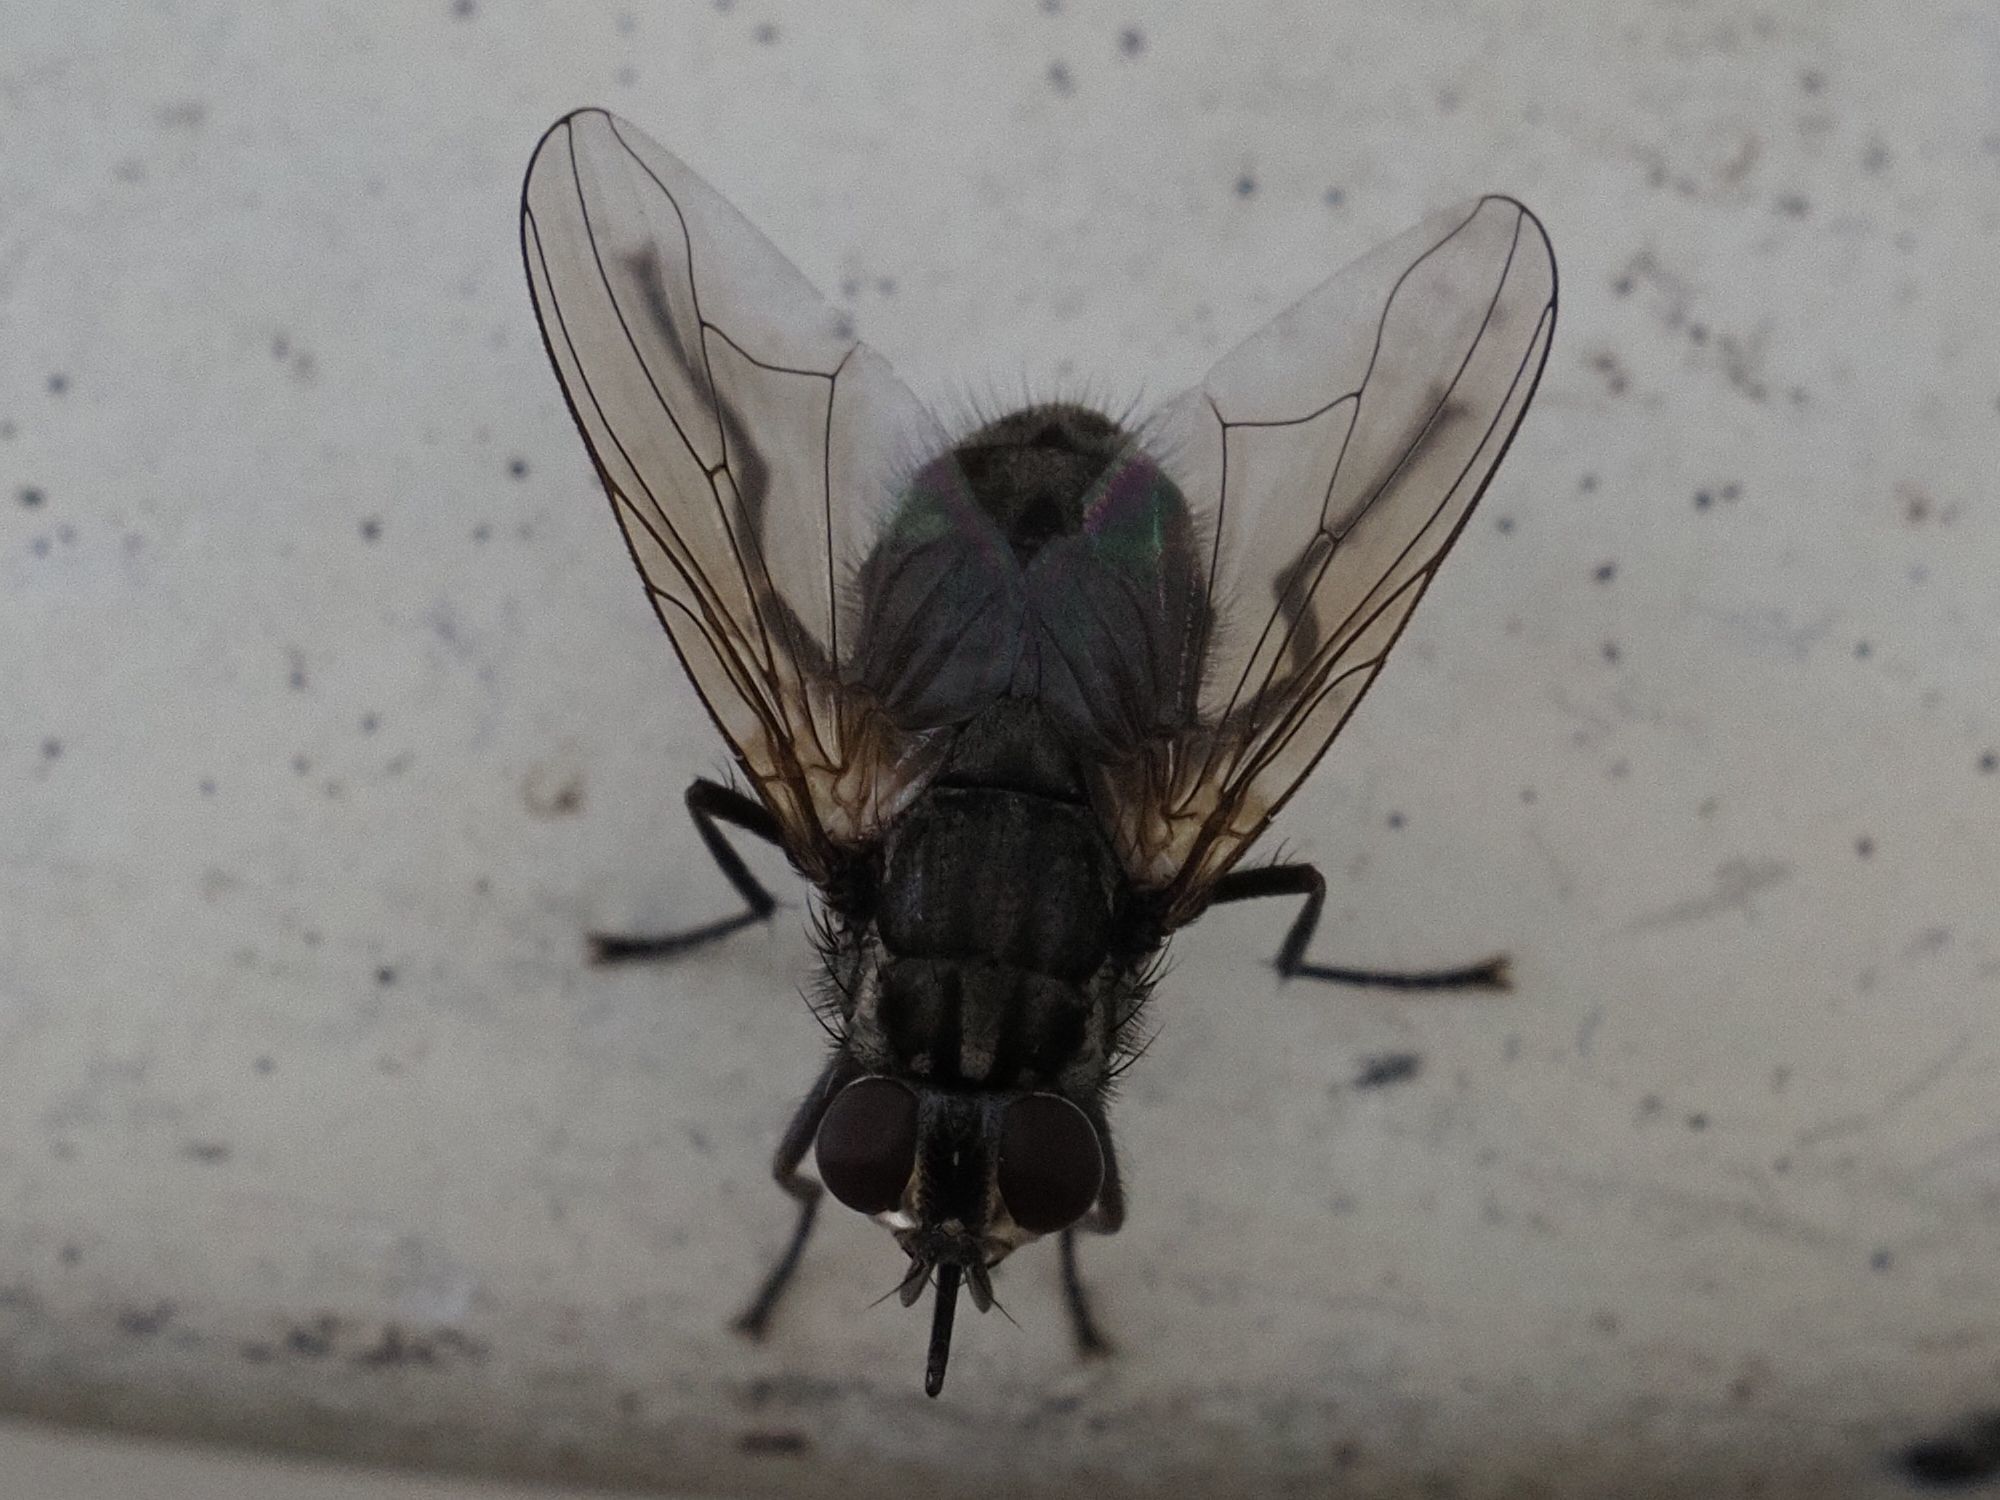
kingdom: Animalia
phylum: Arthropoda
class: Insecta
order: Diptera
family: Muscidae
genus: Stomoxys
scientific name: Stomoxys calcitrans
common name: Stable fly
